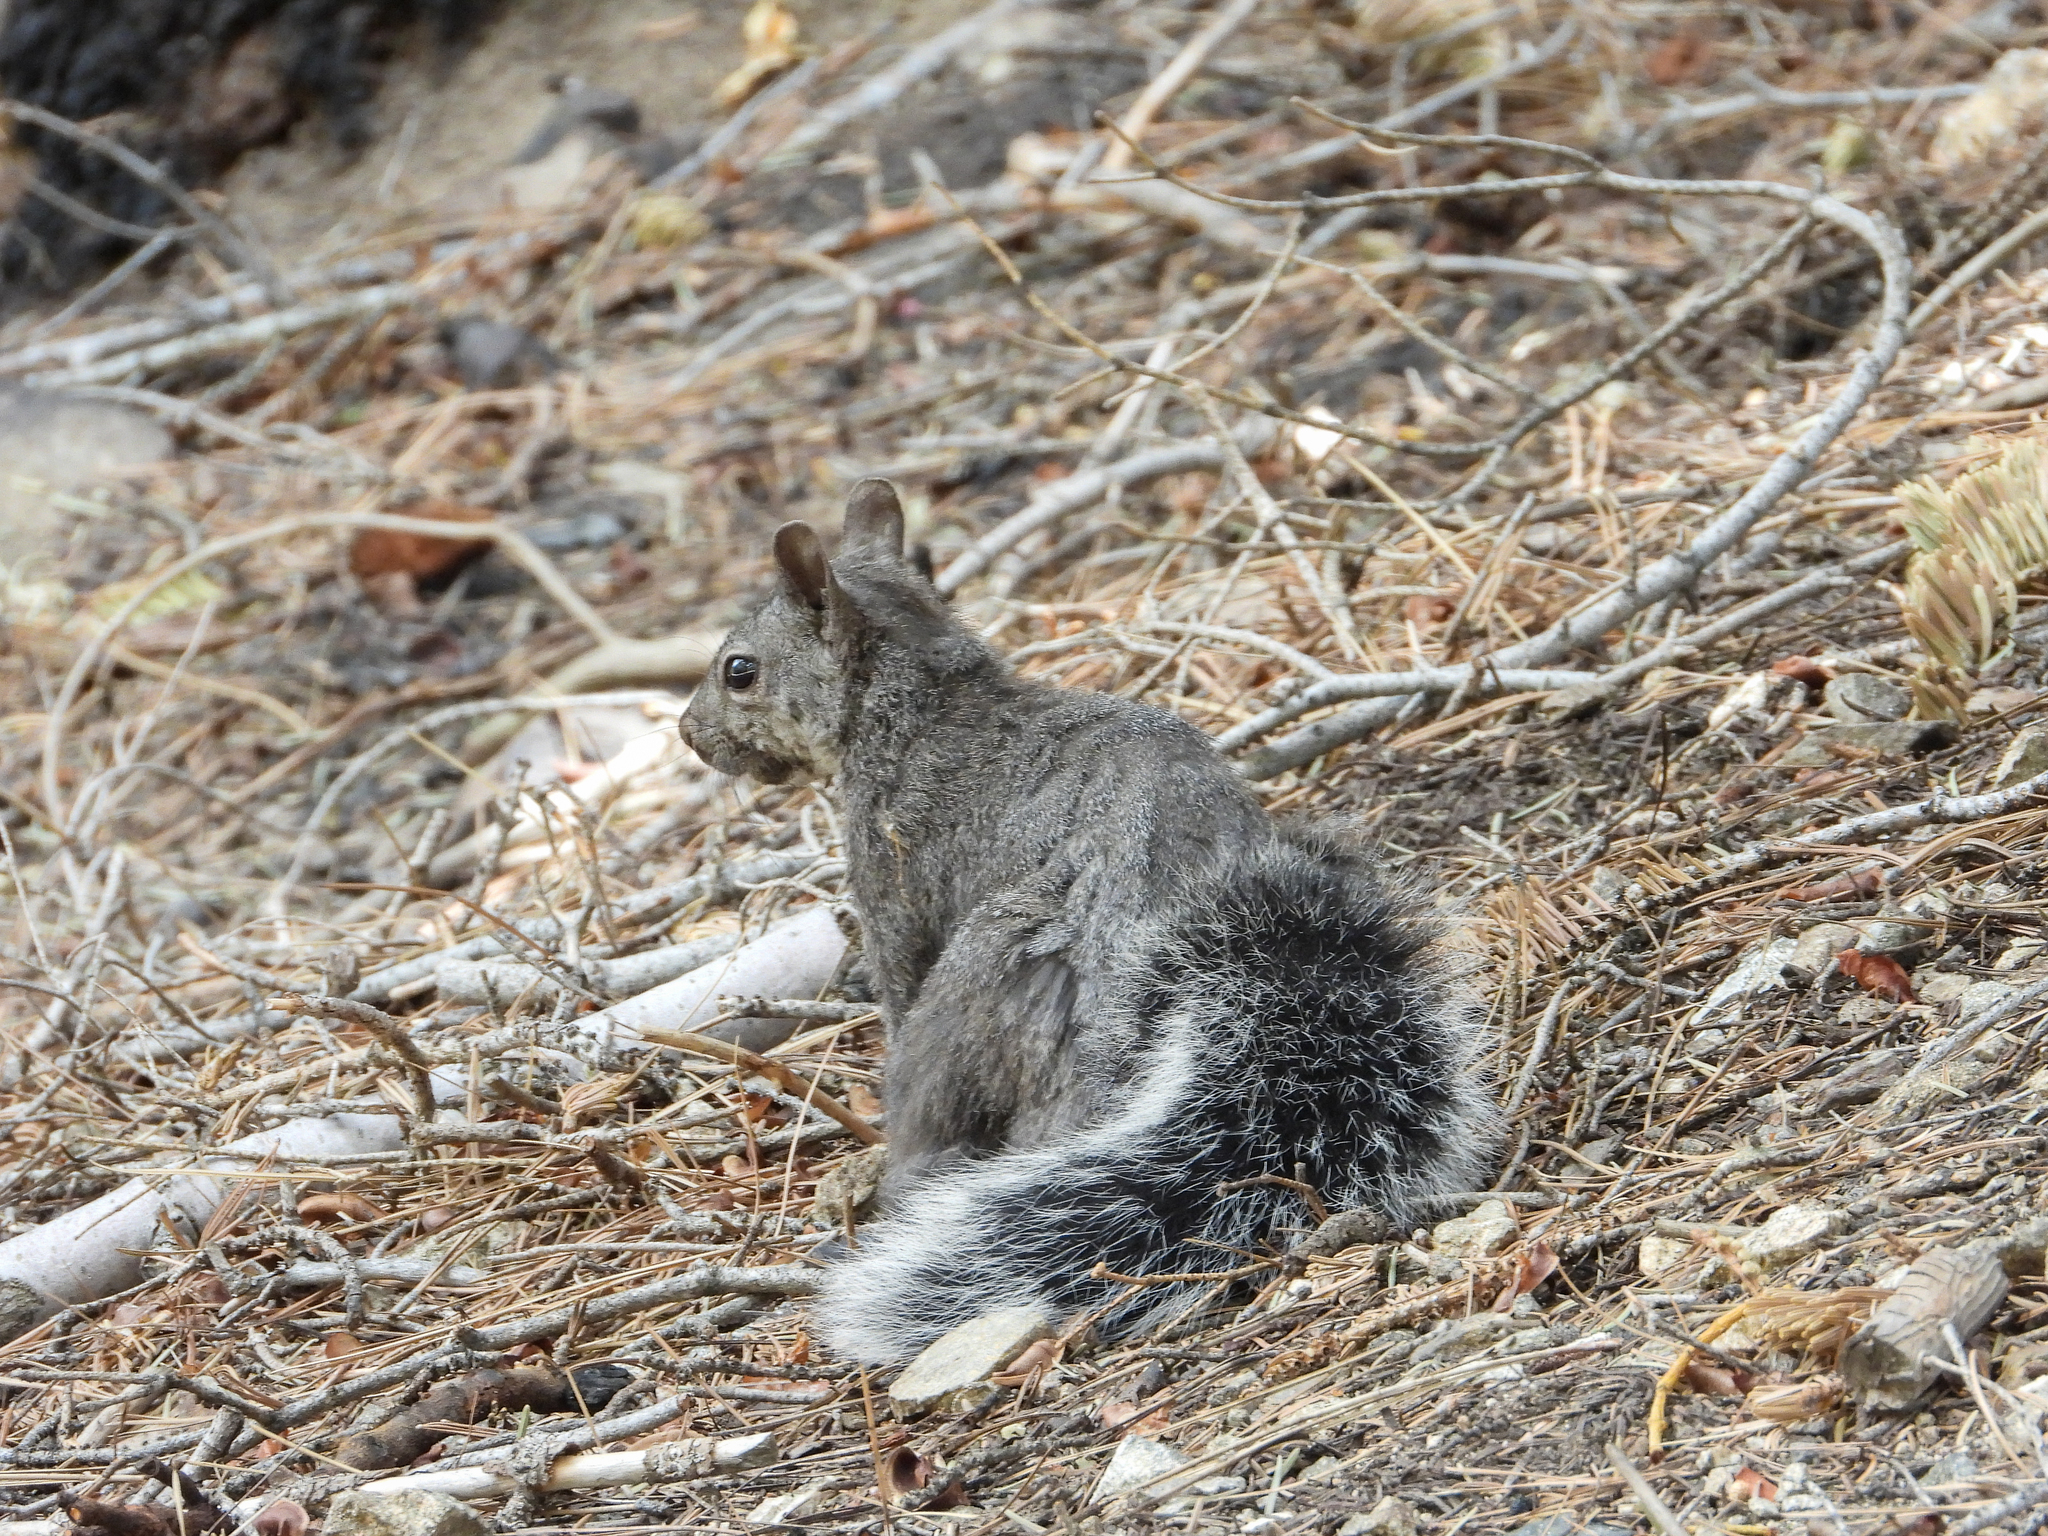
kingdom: Animalia
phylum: Chordata
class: Mammalia
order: Rodentia
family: Sciuridae
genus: Sciurus
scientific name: Sciurus griseus
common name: Western gray squirrel
